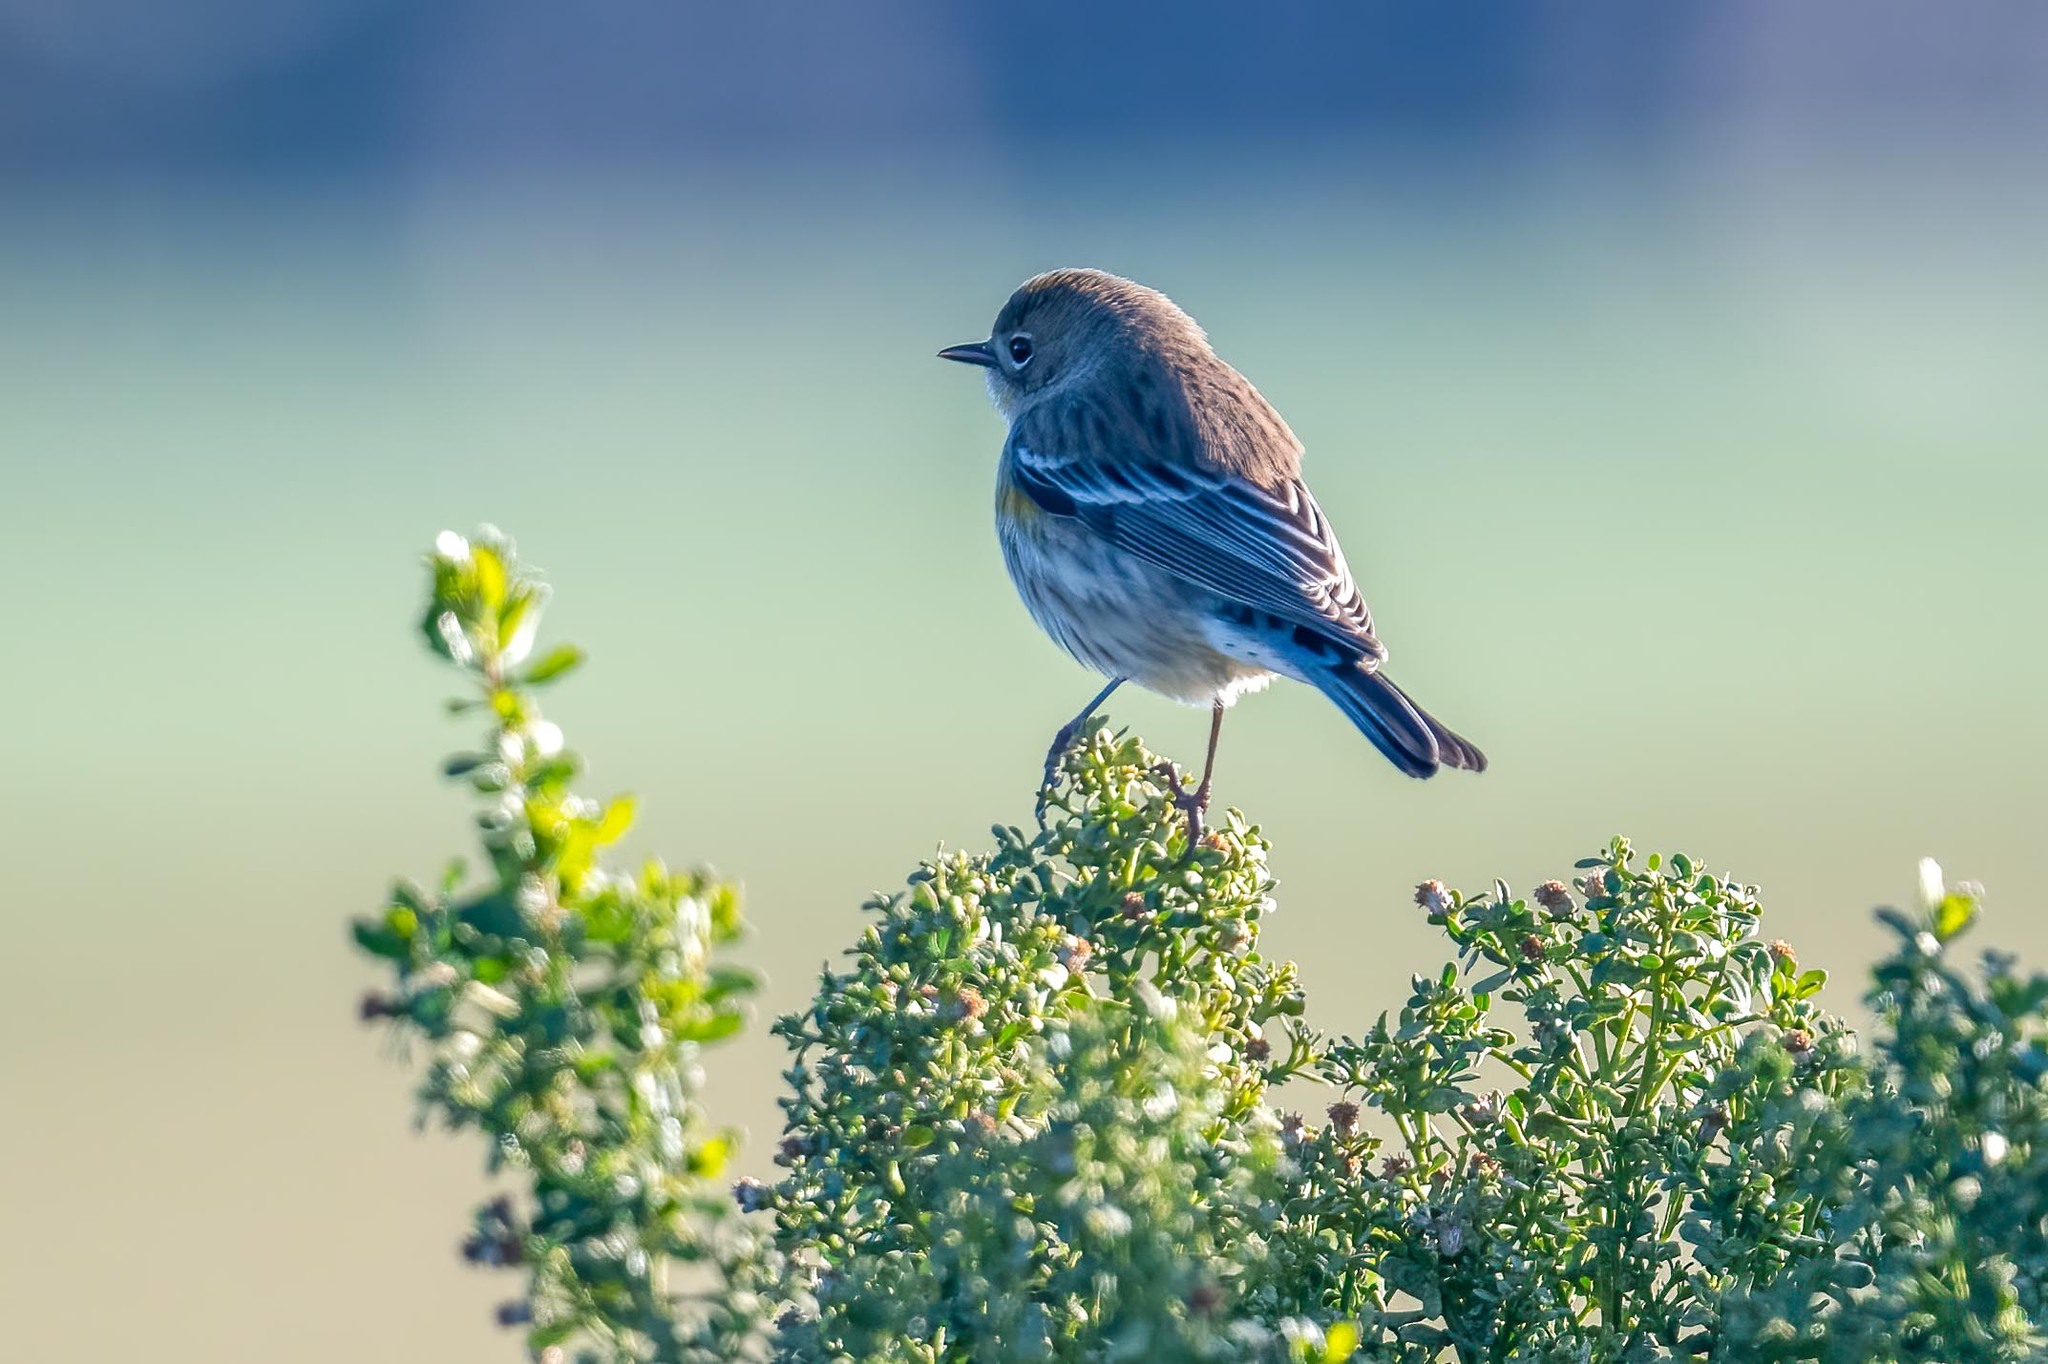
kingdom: Animalia
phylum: Chordata
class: Aves
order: Passeriformes
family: Parulidae
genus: Setophaga
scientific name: Setophaga coronata
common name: Myrtle warbler
